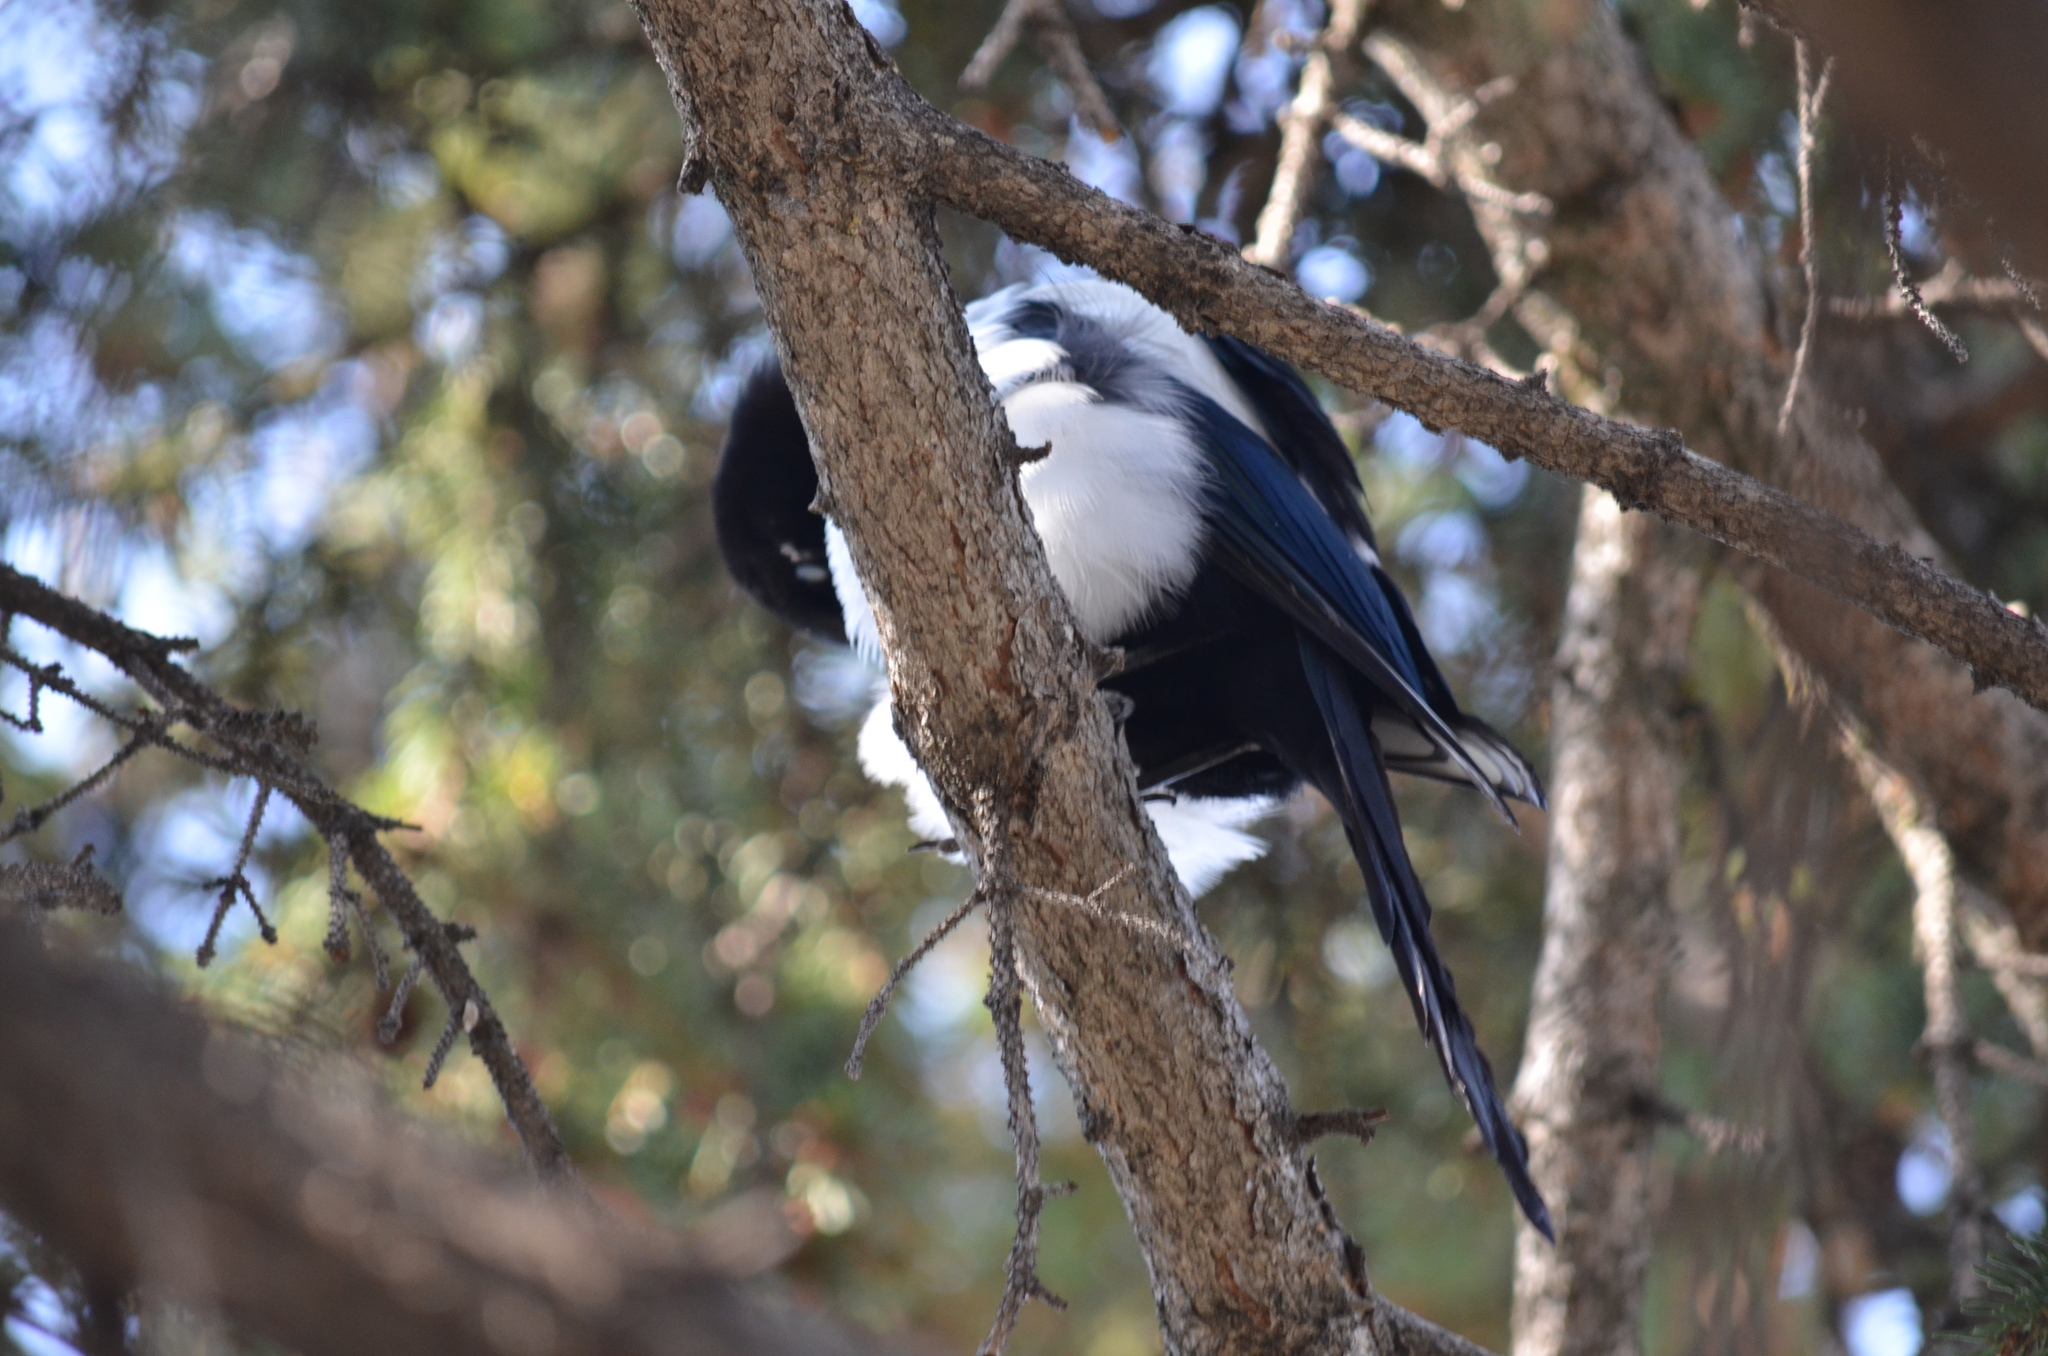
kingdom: Plantae
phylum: Tracheophyta
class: Pinopsida
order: Pinales
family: Pinaceae
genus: Picea
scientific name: Picea
